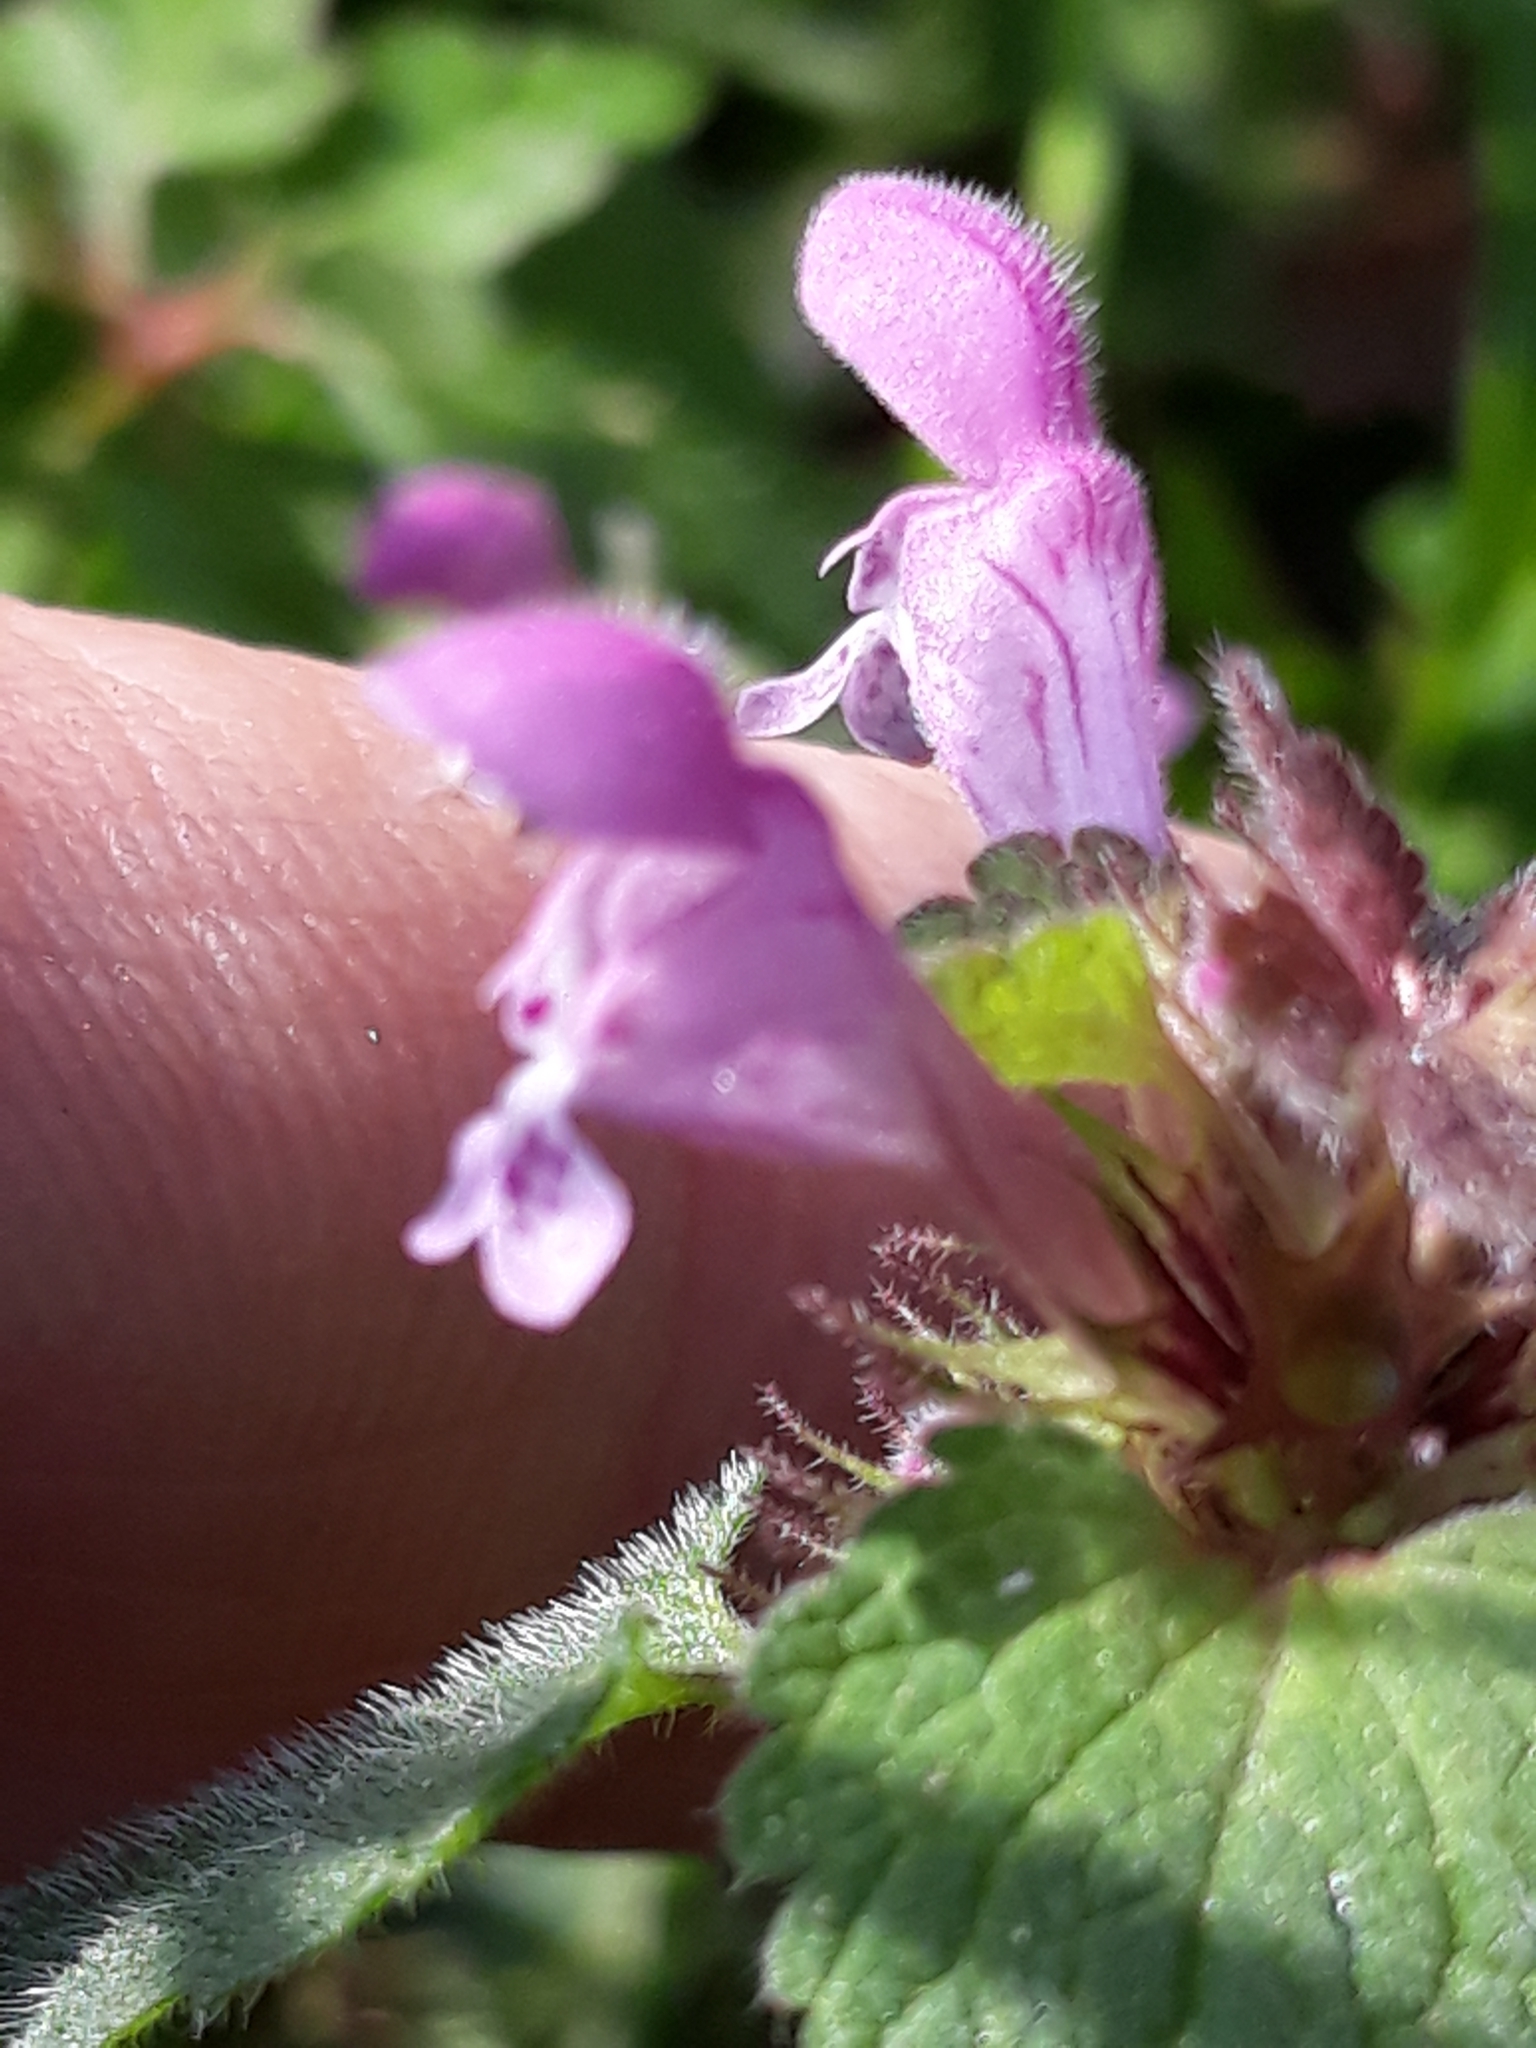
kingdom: Plantae
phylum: Tracheophyta
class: Magnoliopsida
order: Lamiales
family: Lamiaceae
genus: Lamium
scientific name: Lamium purpureum
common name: Red dead-nettle
